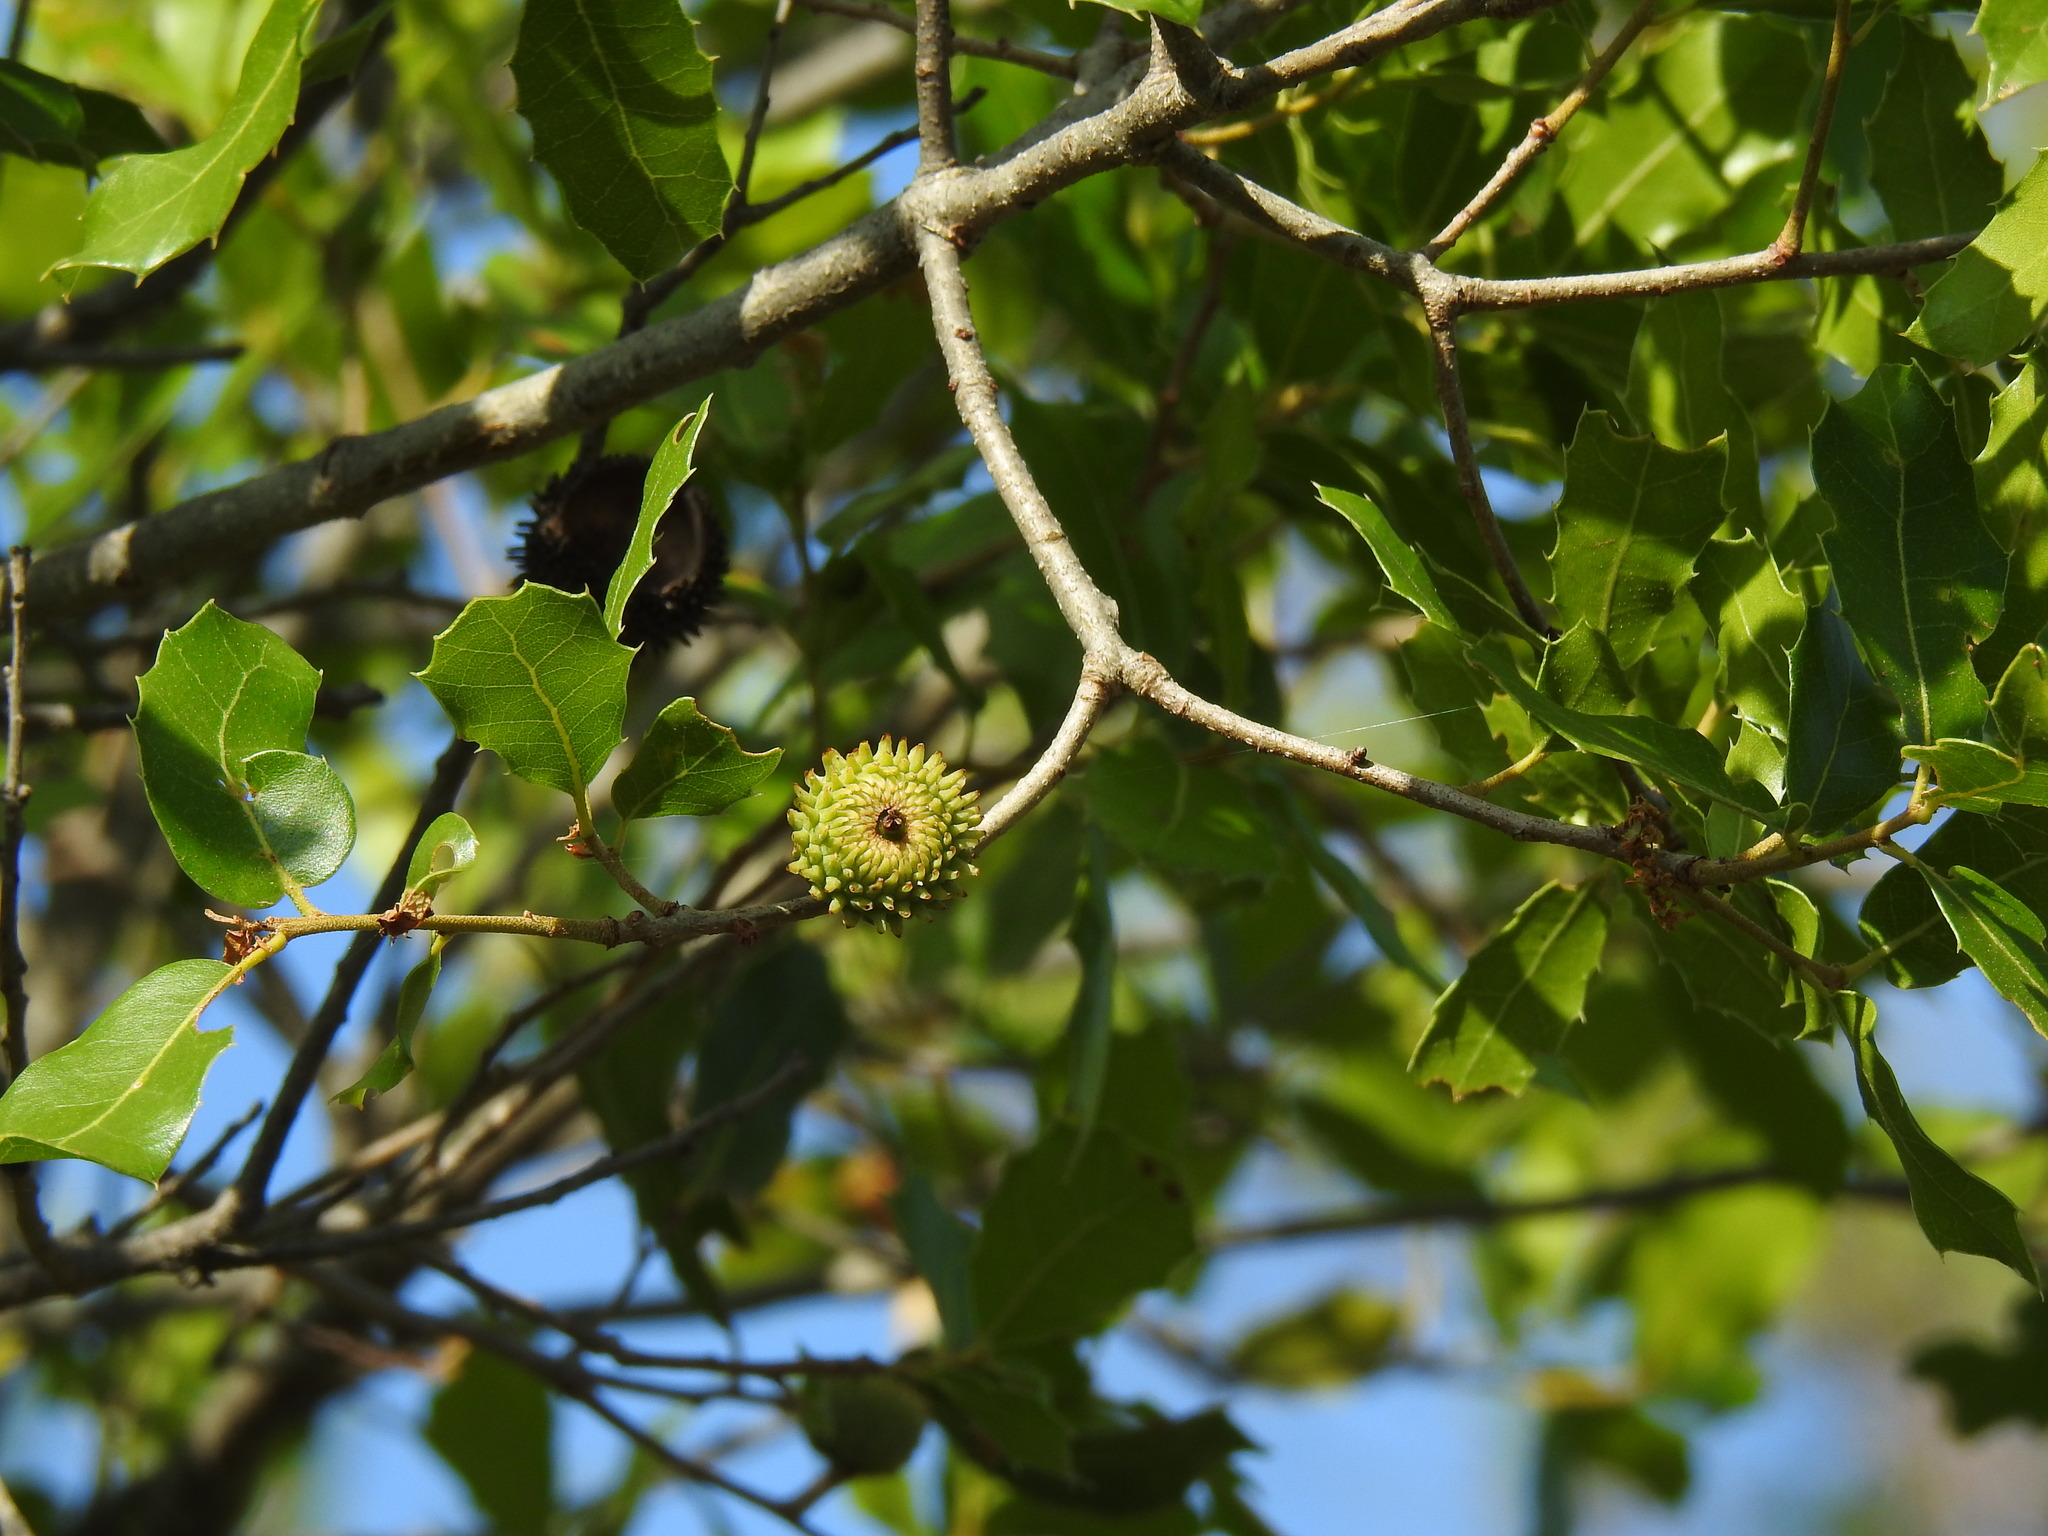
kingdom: Plantae
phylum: Tracheophyta
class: Magnoliopsida
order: Fagales
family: Fagaceae
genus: Quercus
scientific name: Quercus coccifera
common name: Kermes oak
